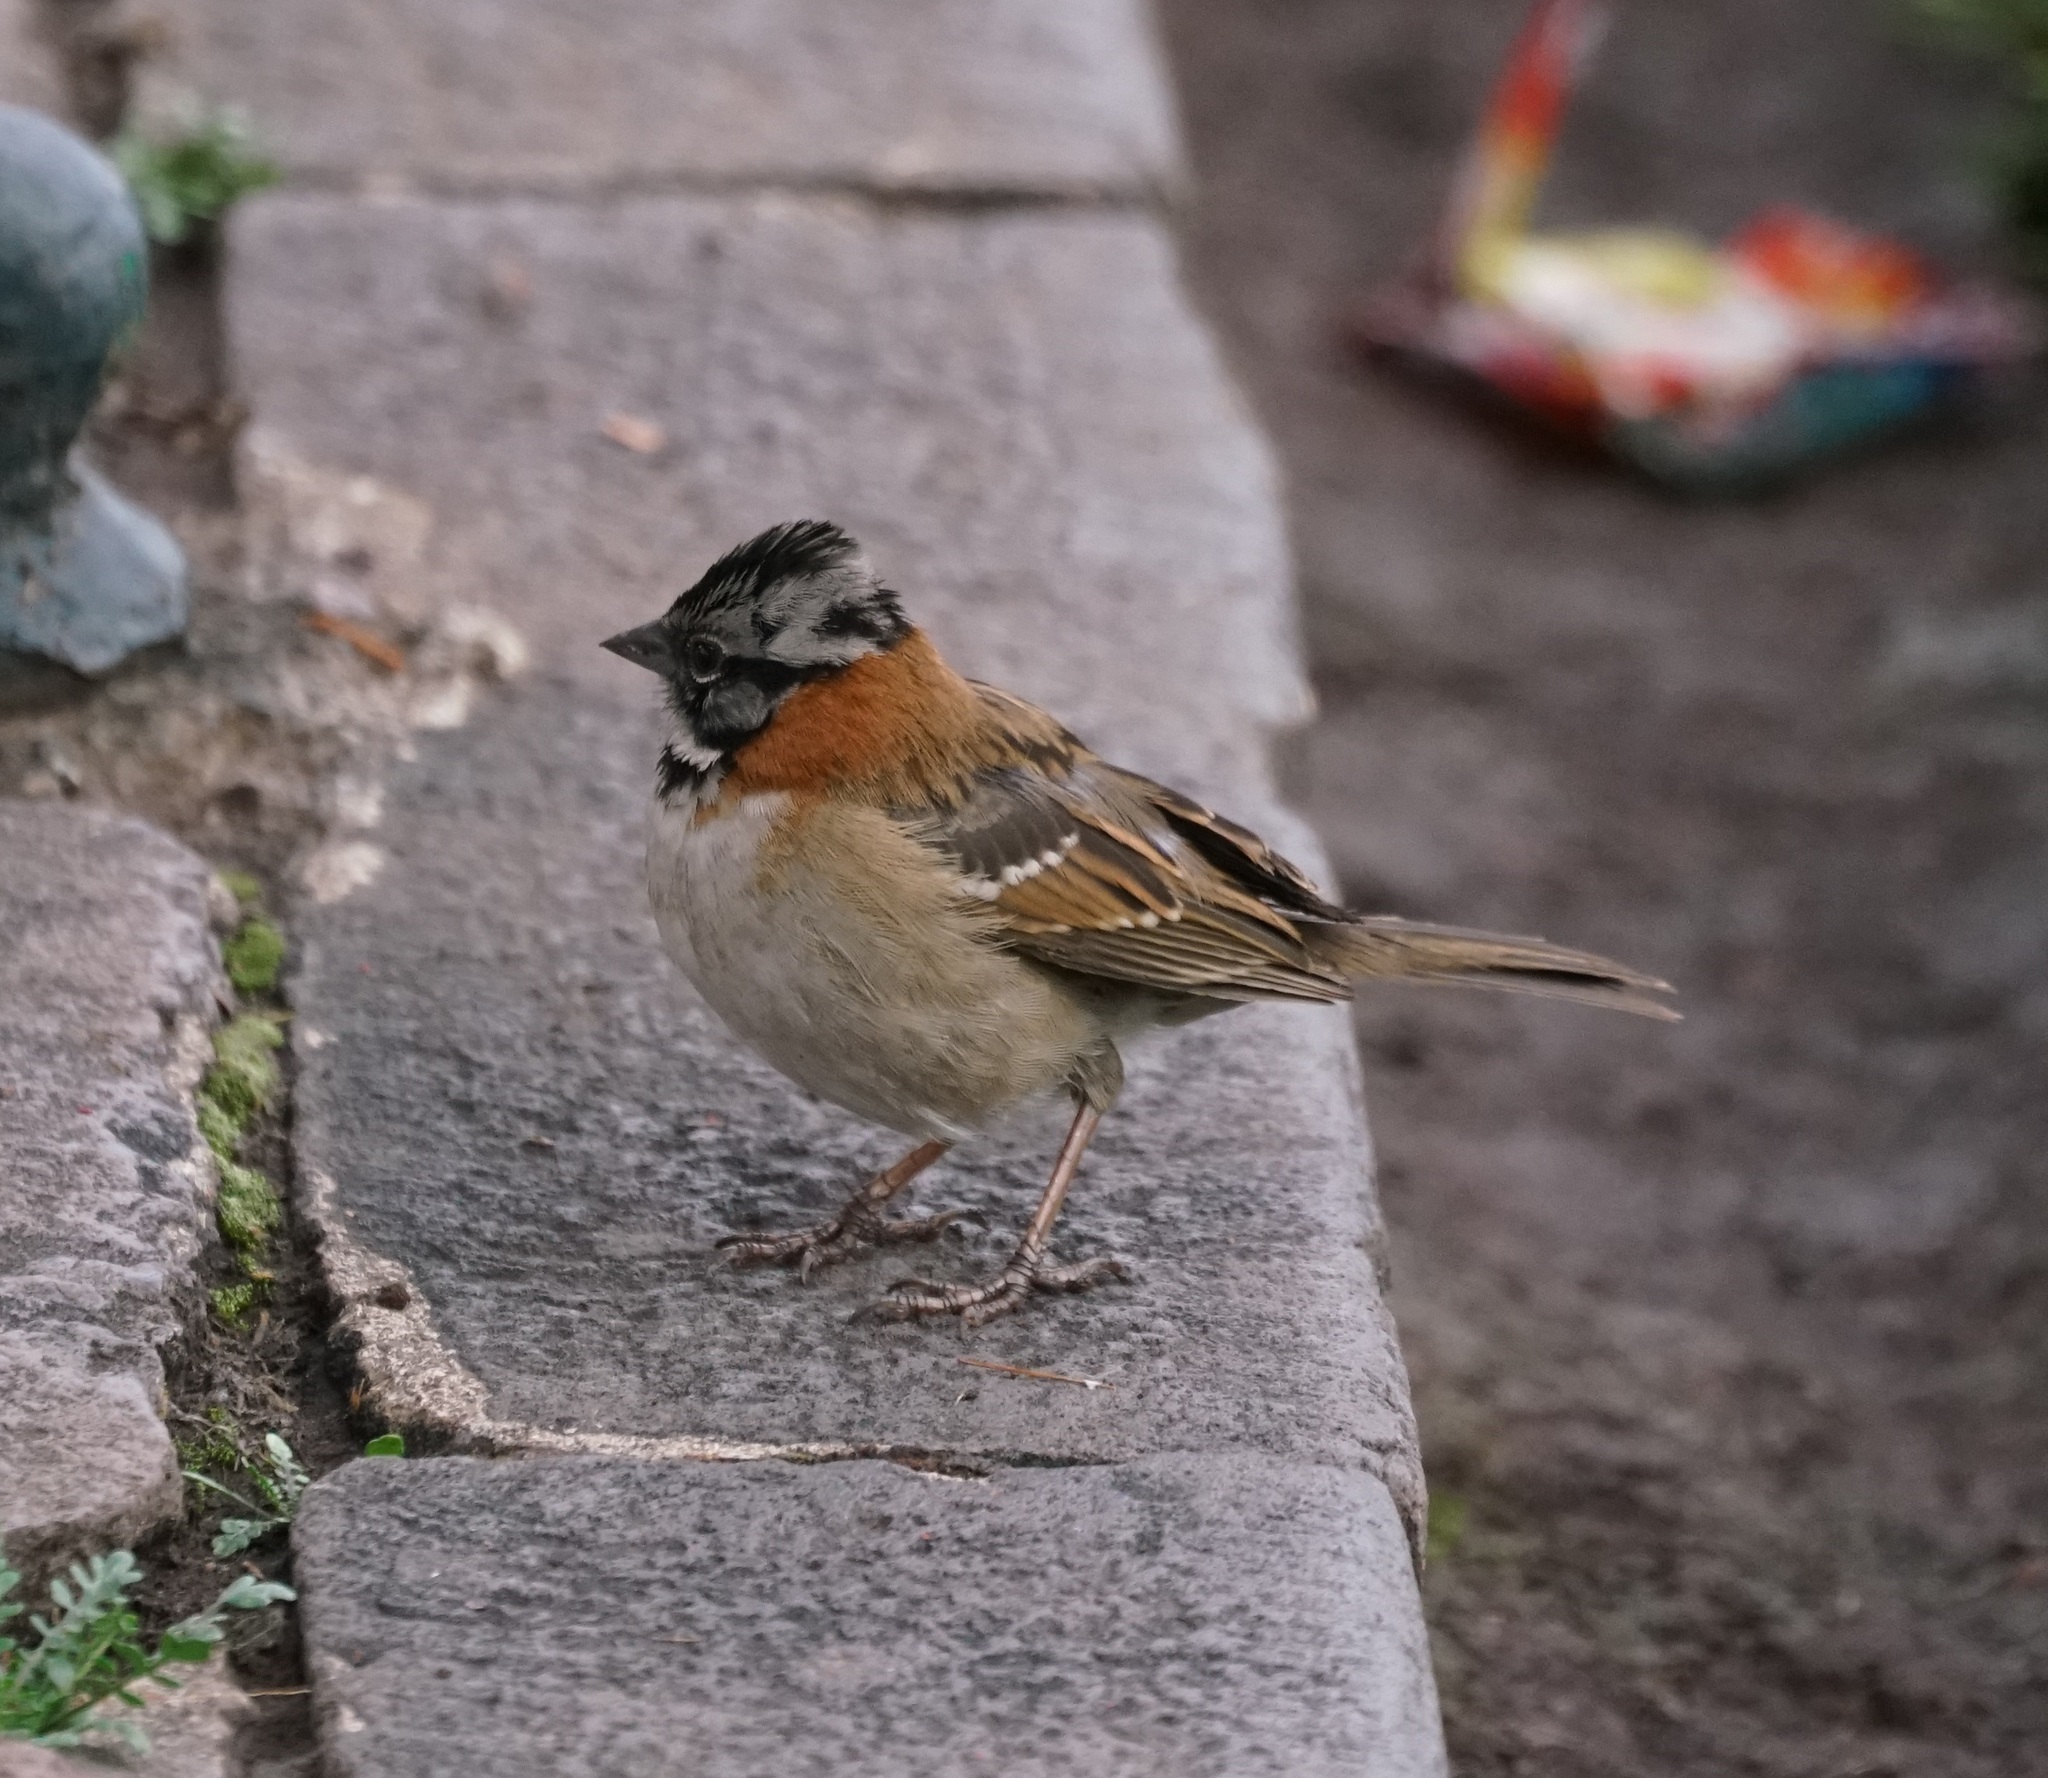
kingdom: Animalia
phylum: Chordata
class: Aves
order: Passeriformes
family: Passerellidae
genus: Zonotrichia
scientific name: Zonotrichia capensis
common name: Rufous-collared sparrow
